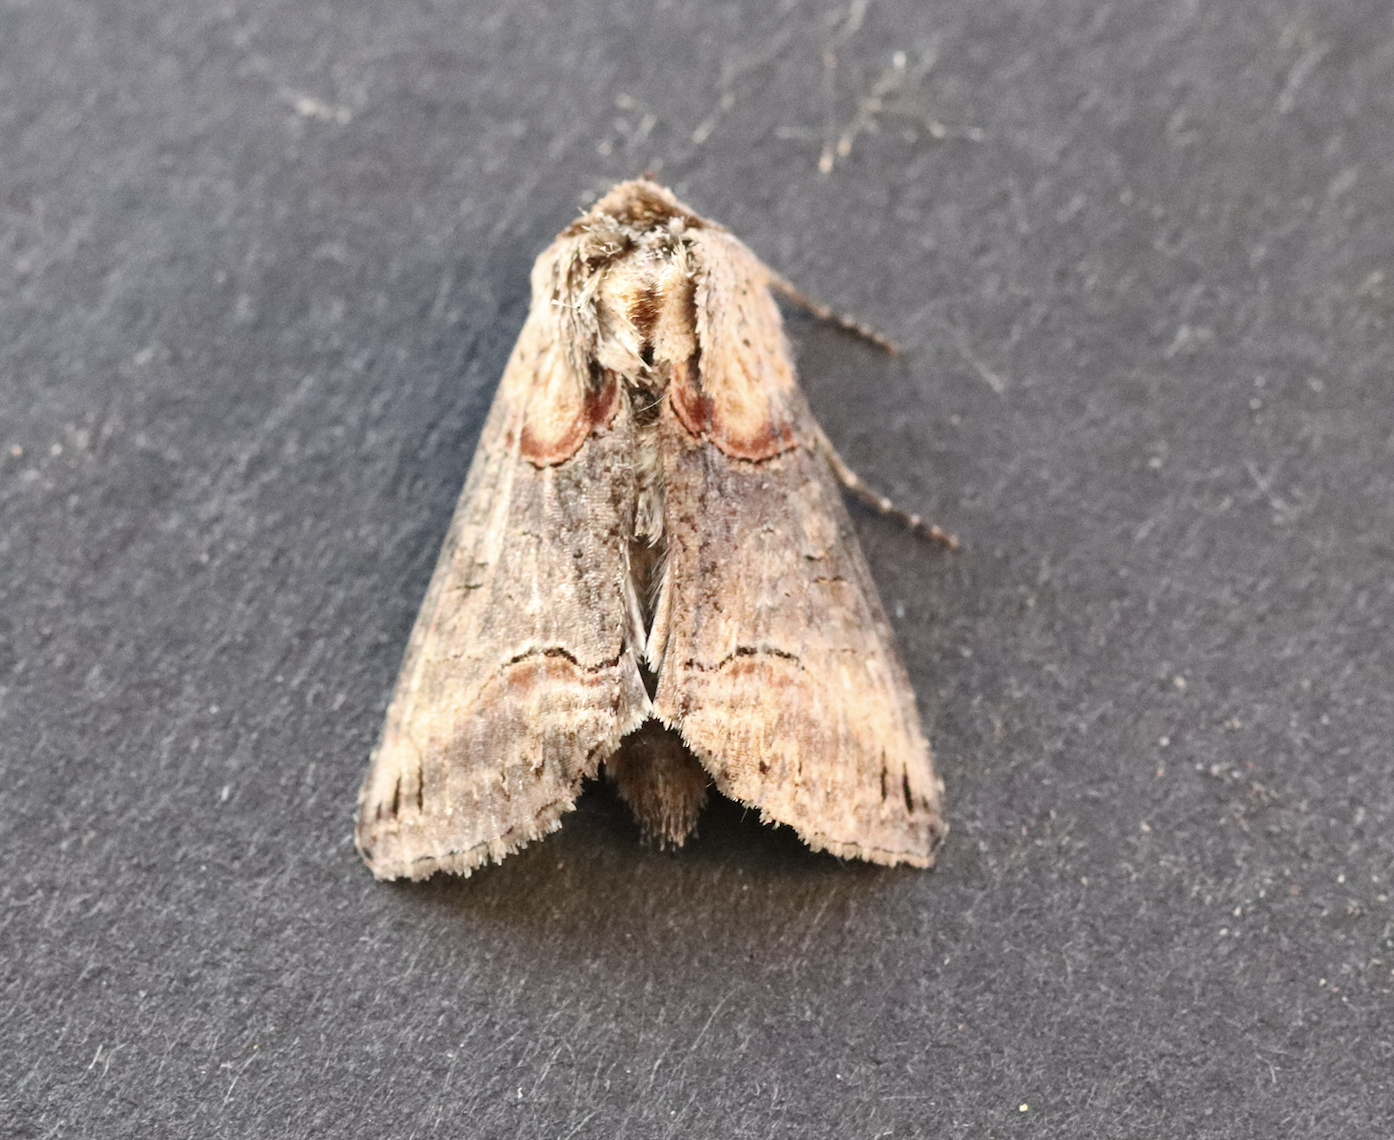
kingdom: Animalia
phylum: Arthropoda
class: Insecta
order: Lepidoptera
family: Noctuidae
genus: Abrostola
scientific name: Abrostola triplasia
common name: Dark spectacle
